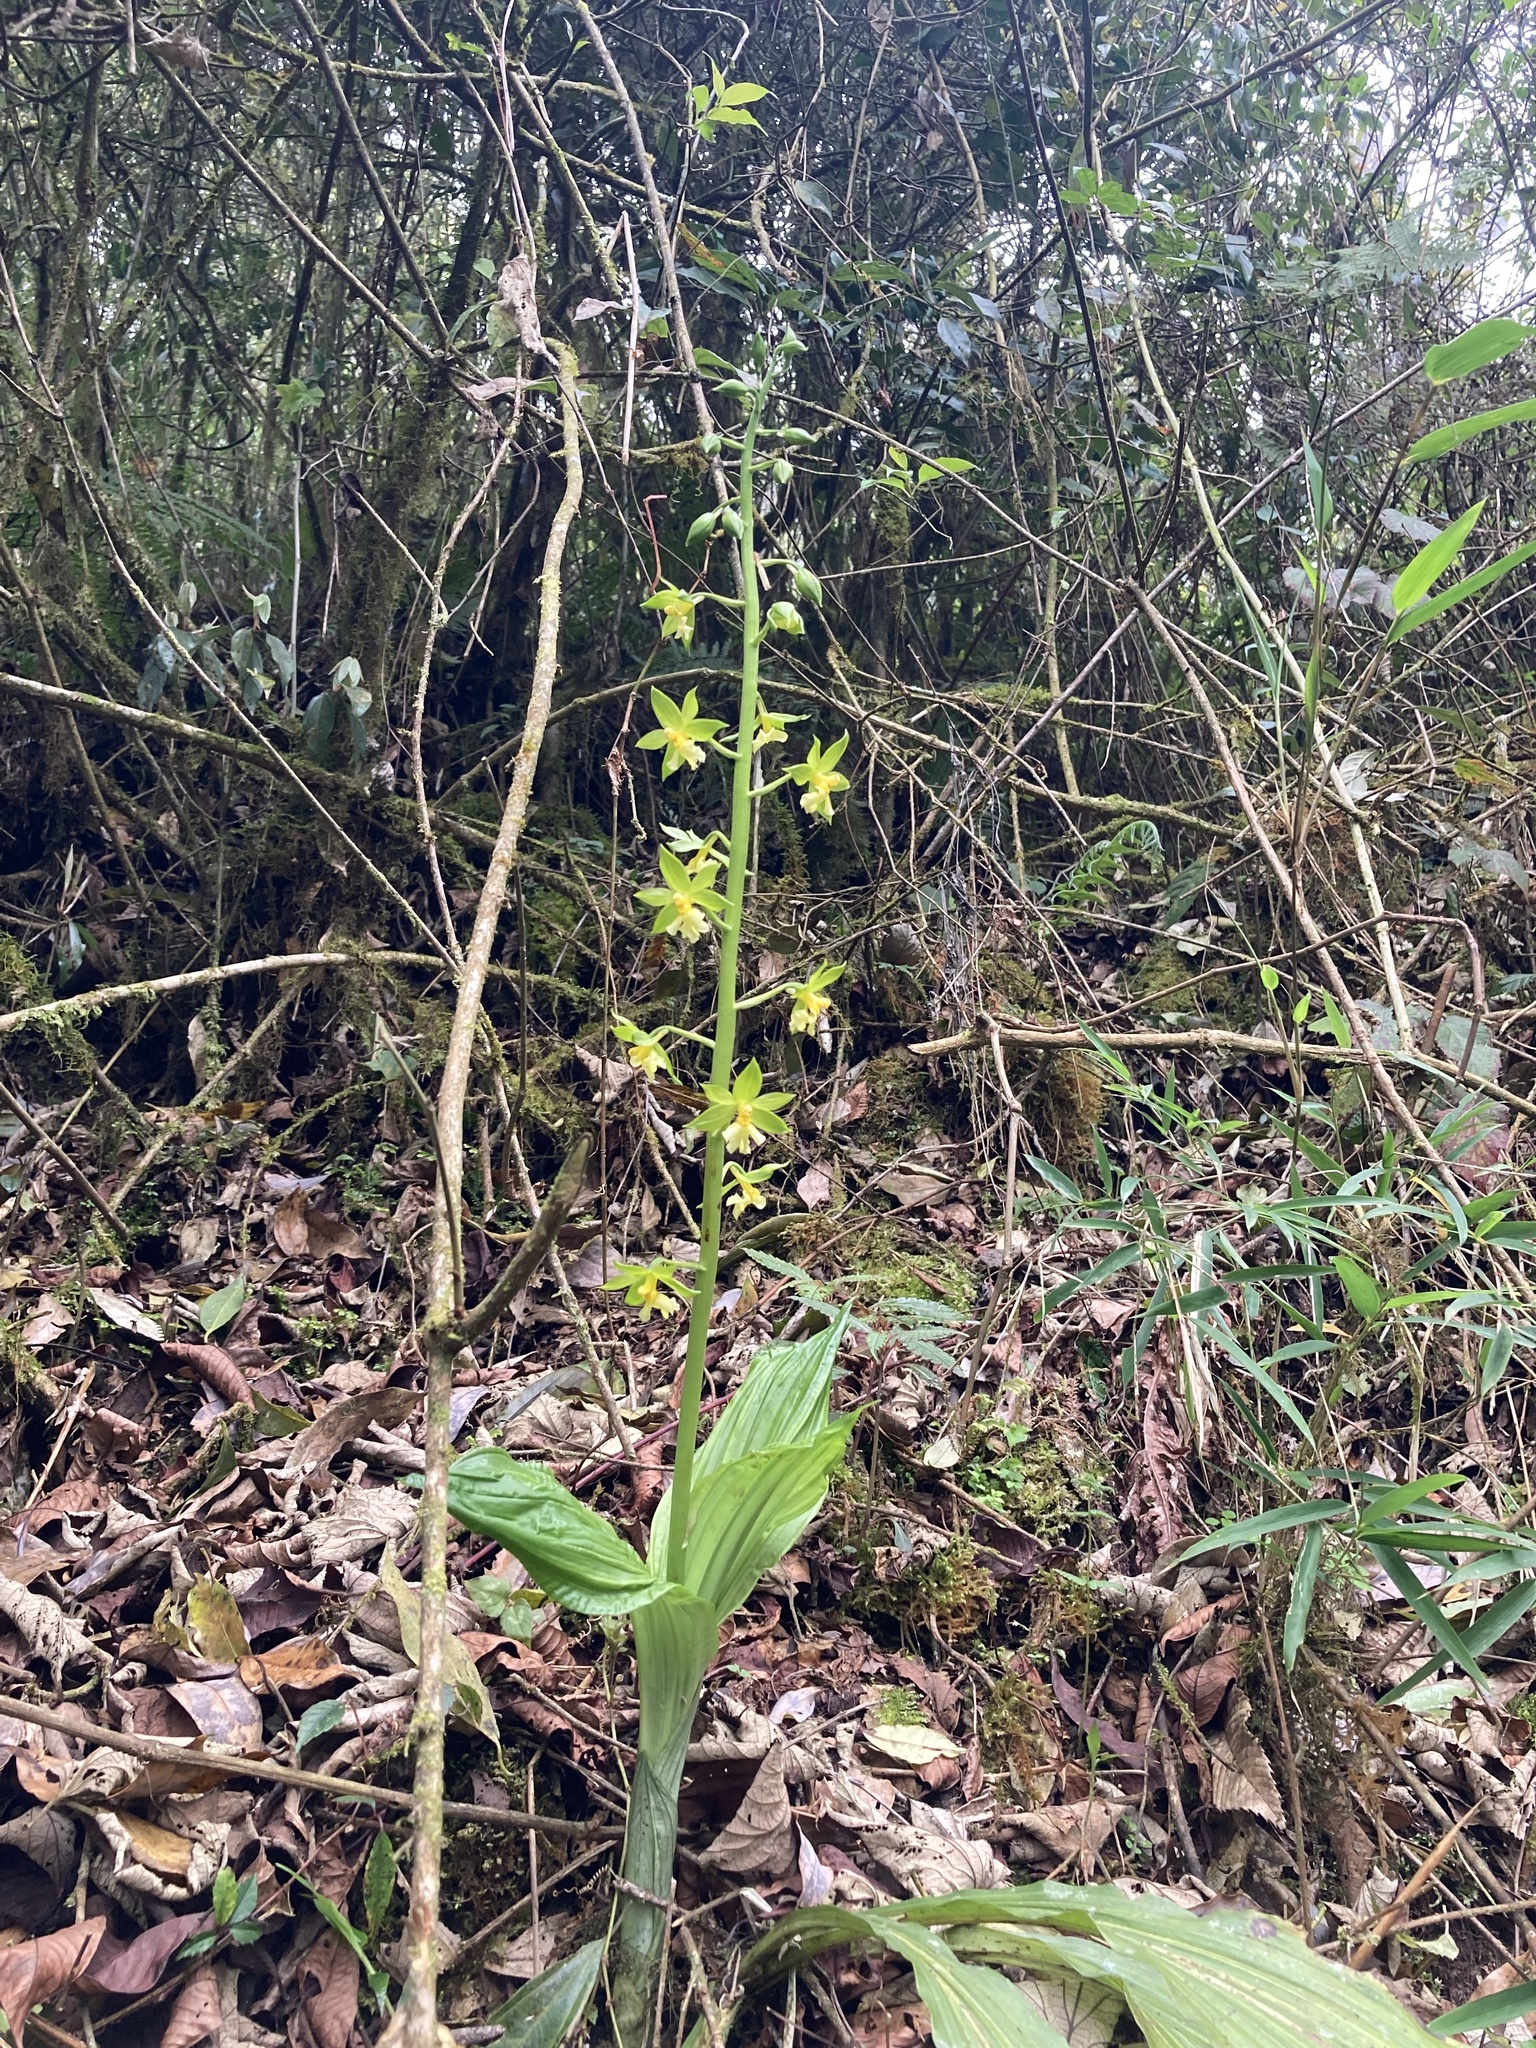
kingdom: Plantae
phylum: Tracheophyta
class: Liliopsida
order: Asparagales
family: Orchidaceae
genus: Calanthe
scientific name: Calanthe griffithii
